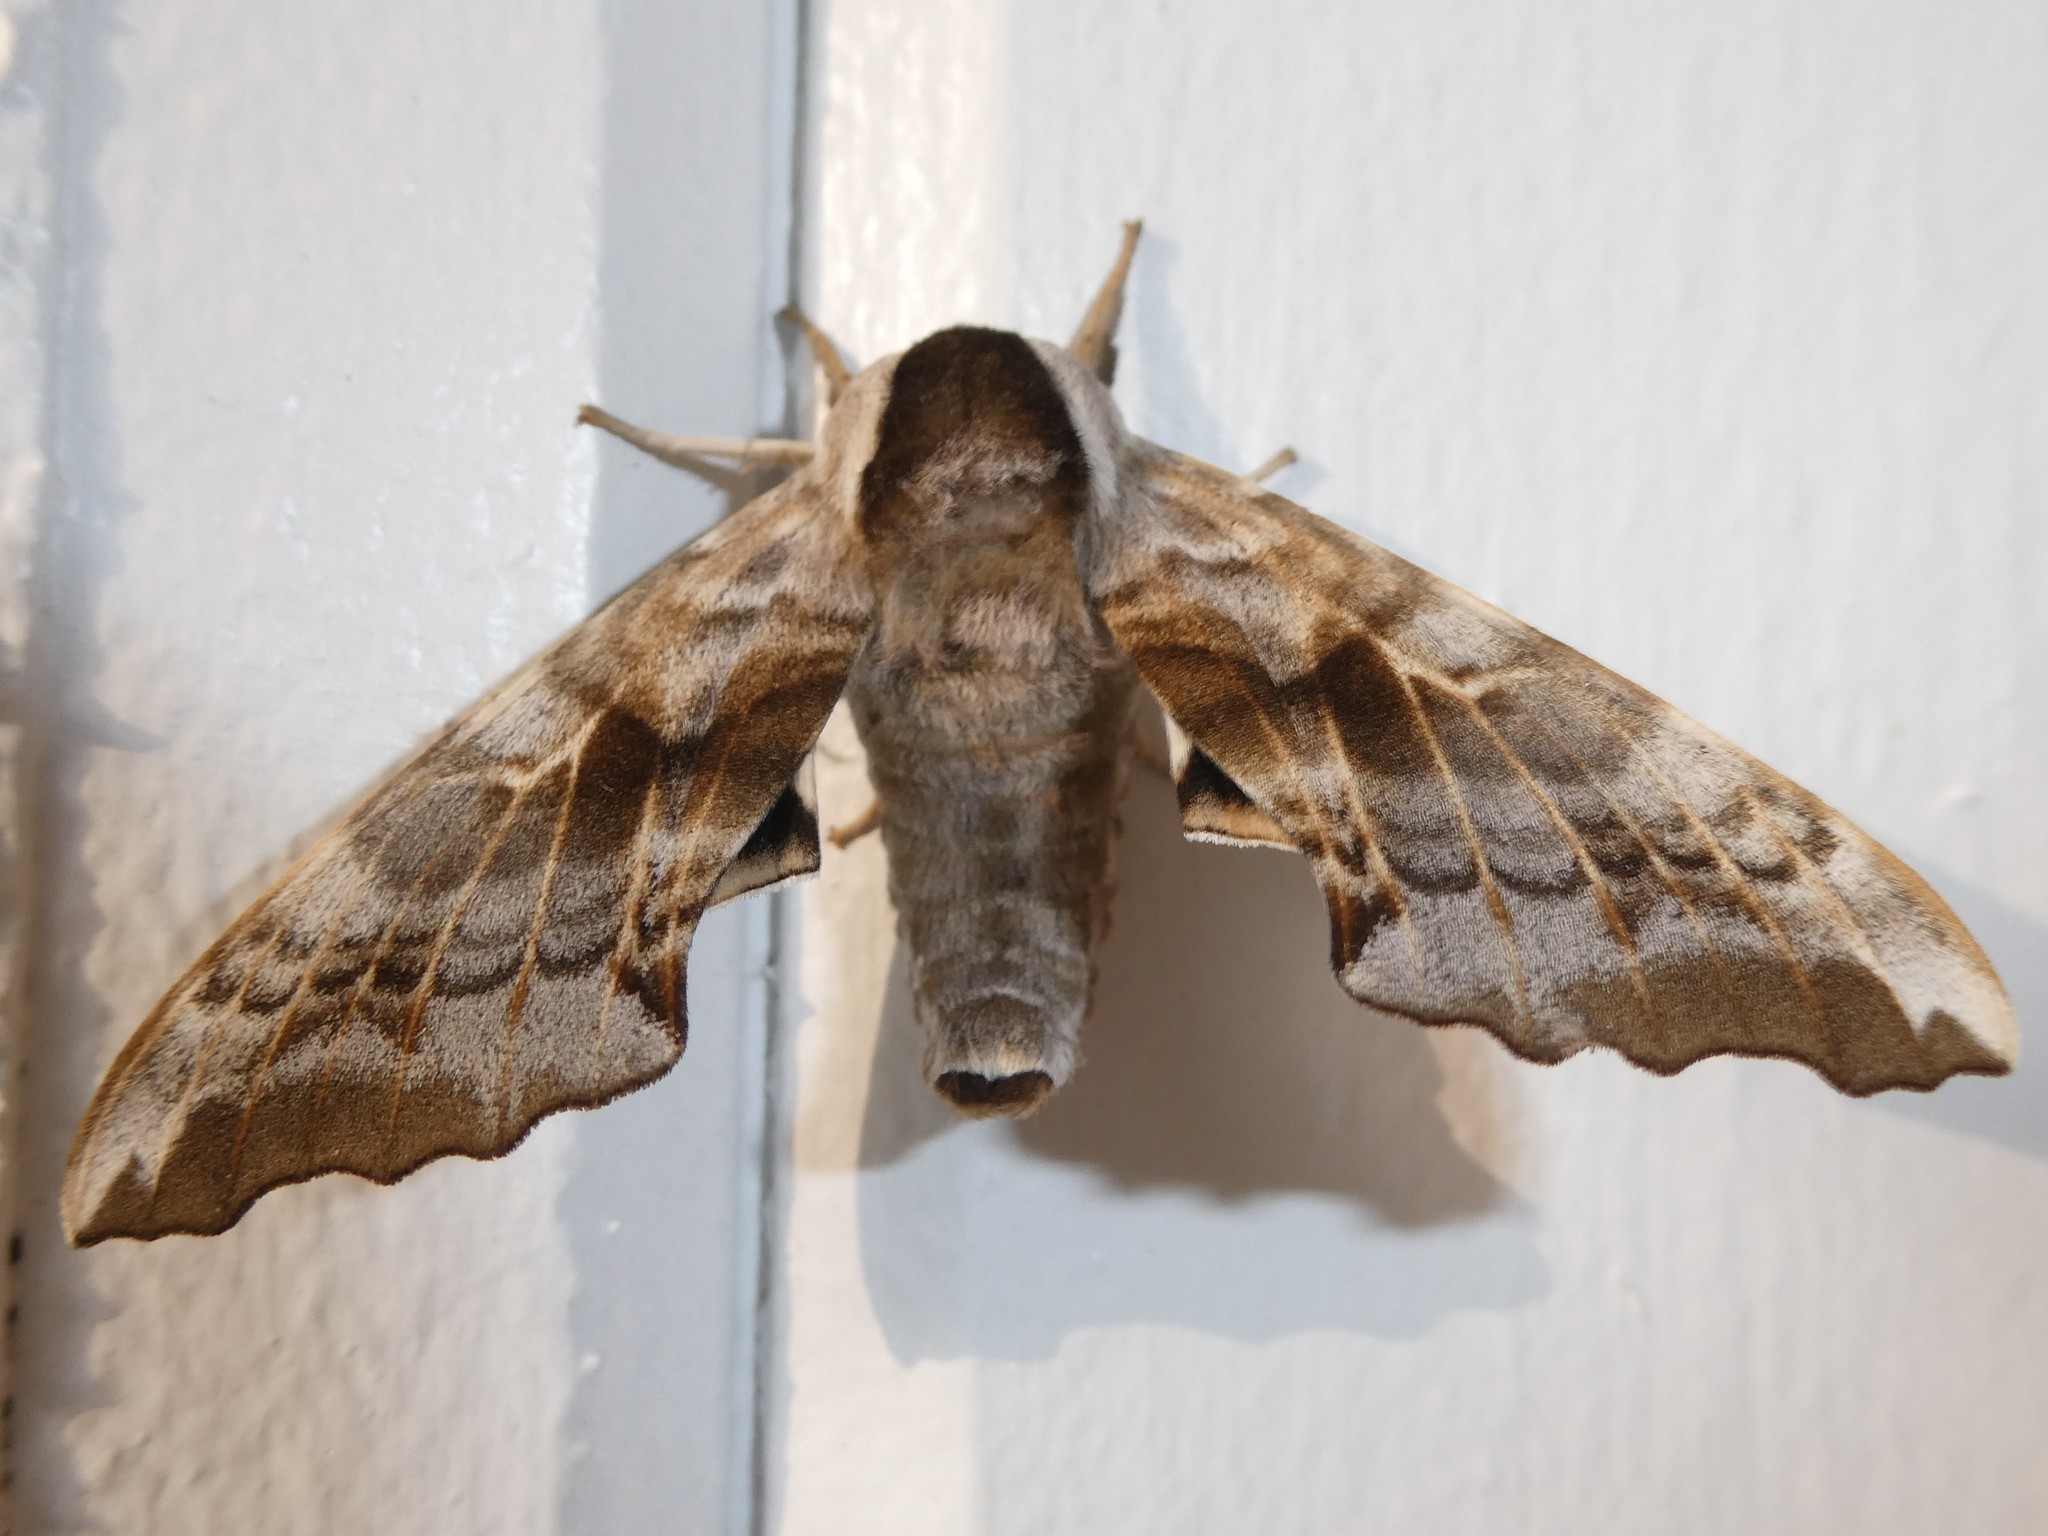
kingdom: Animalia
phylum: Arthropoda
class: Insecta
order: Lepidoptera
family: Sphingidae
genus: Smerinthus
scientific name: Smerinthus cerisyi
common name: Cerisy's sphinx moth
